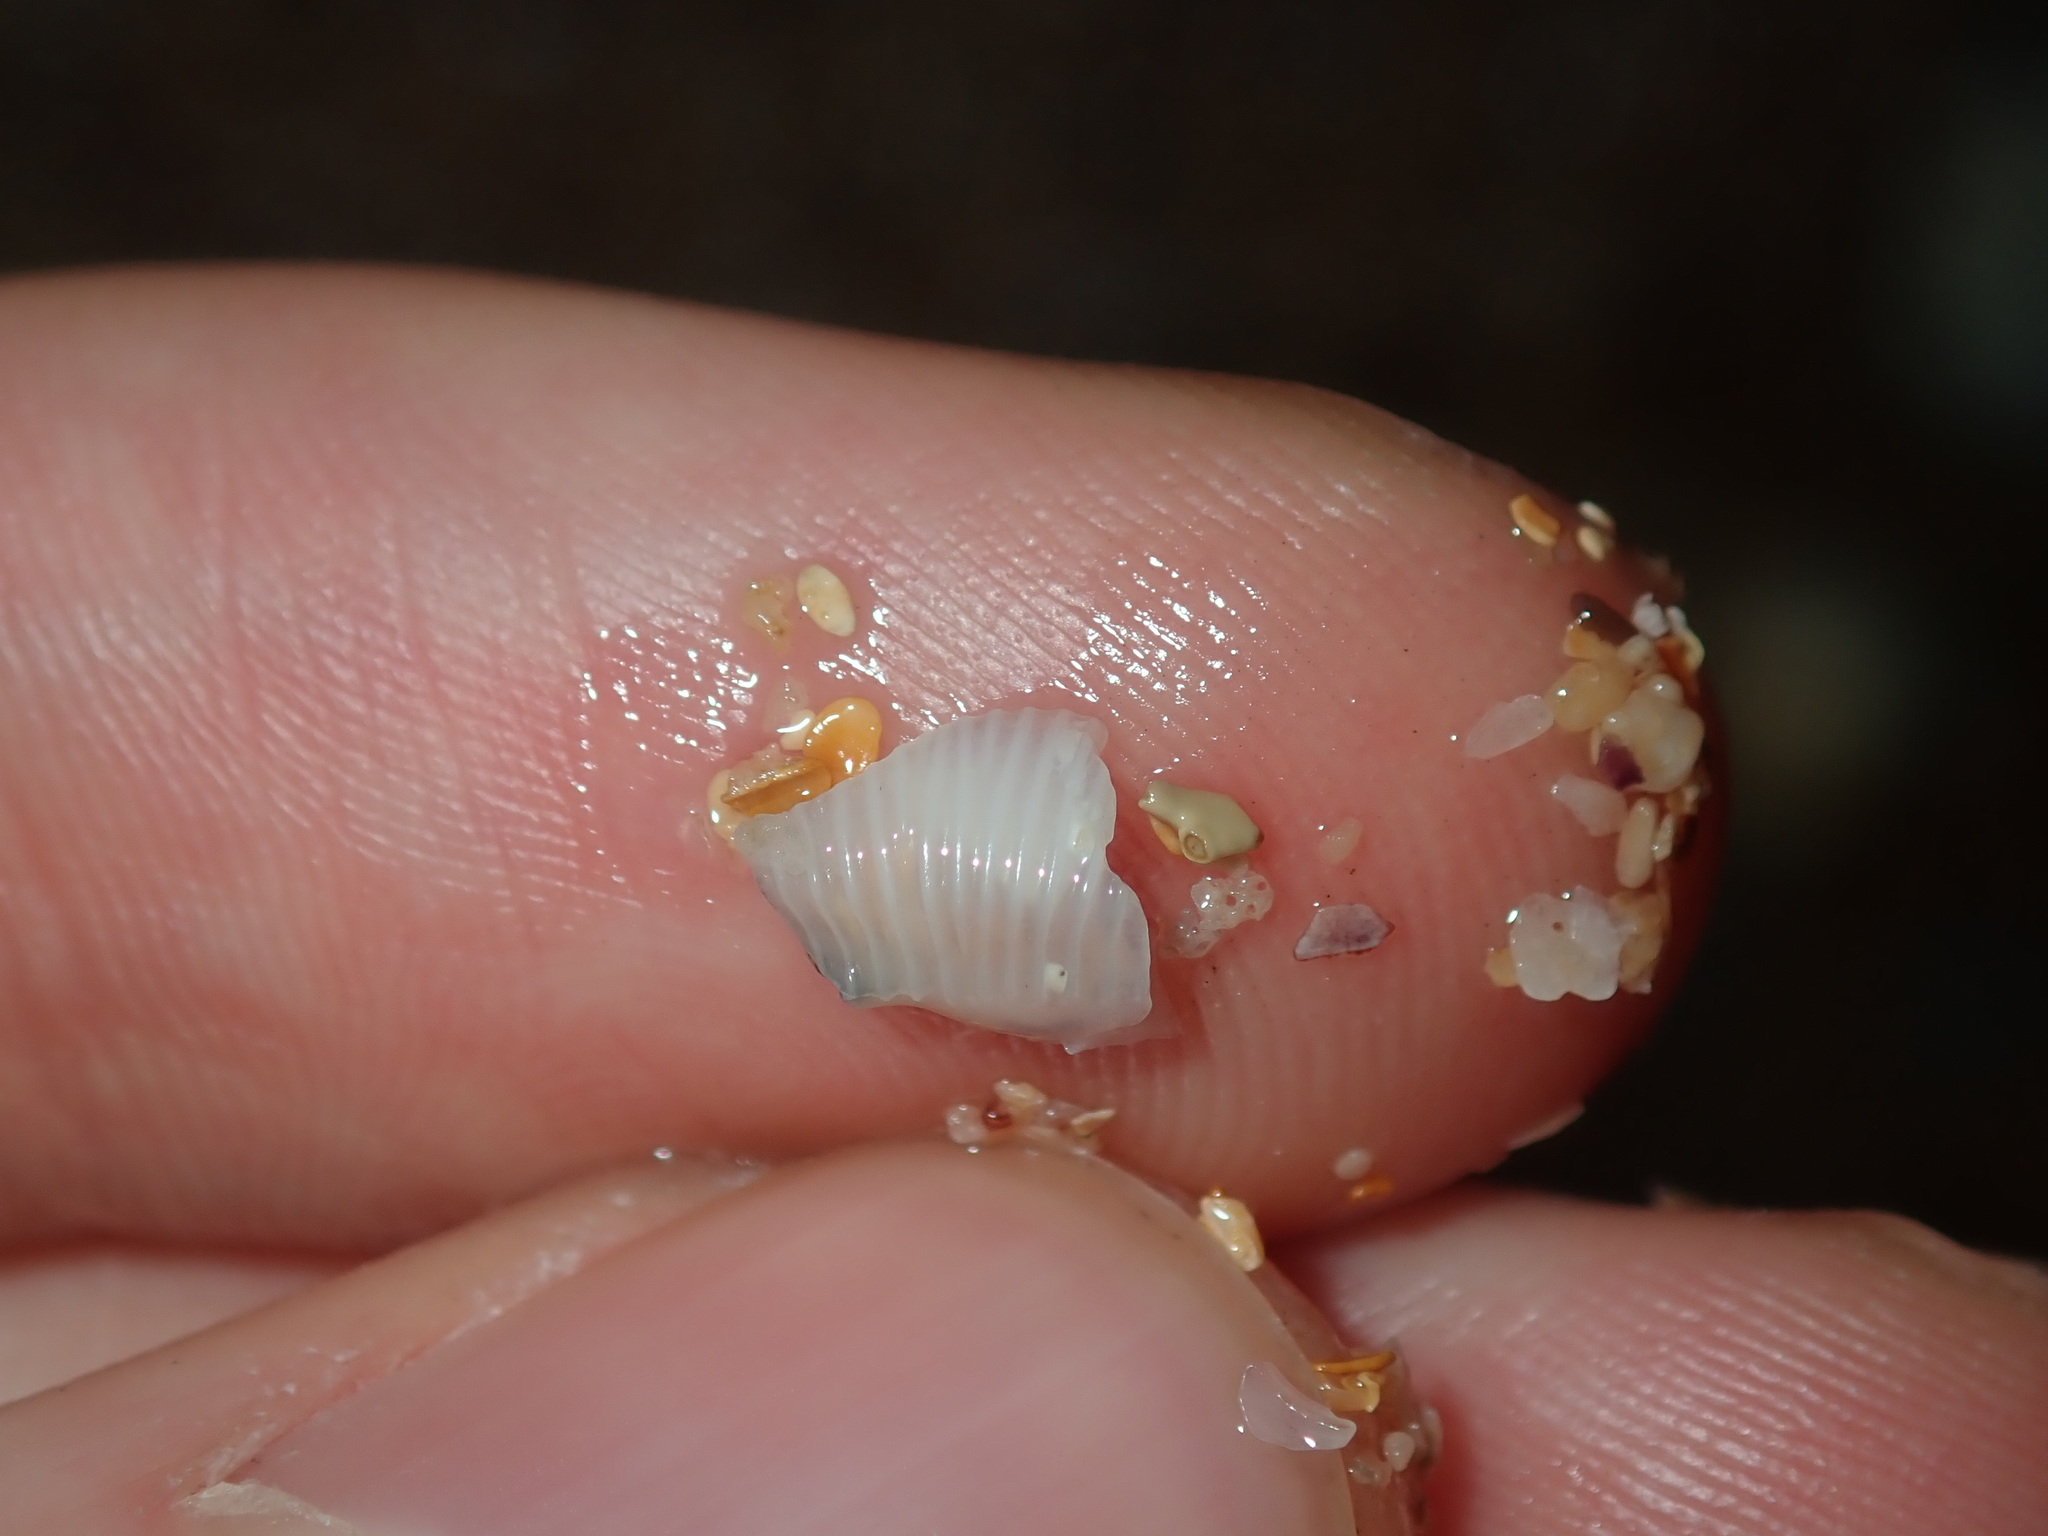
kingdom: Animalia
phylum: Mollusca
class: Gastropoda
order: Littorinimorpha
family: Triviidae
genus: Ellatrivia
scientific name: Ellatrivia merces
